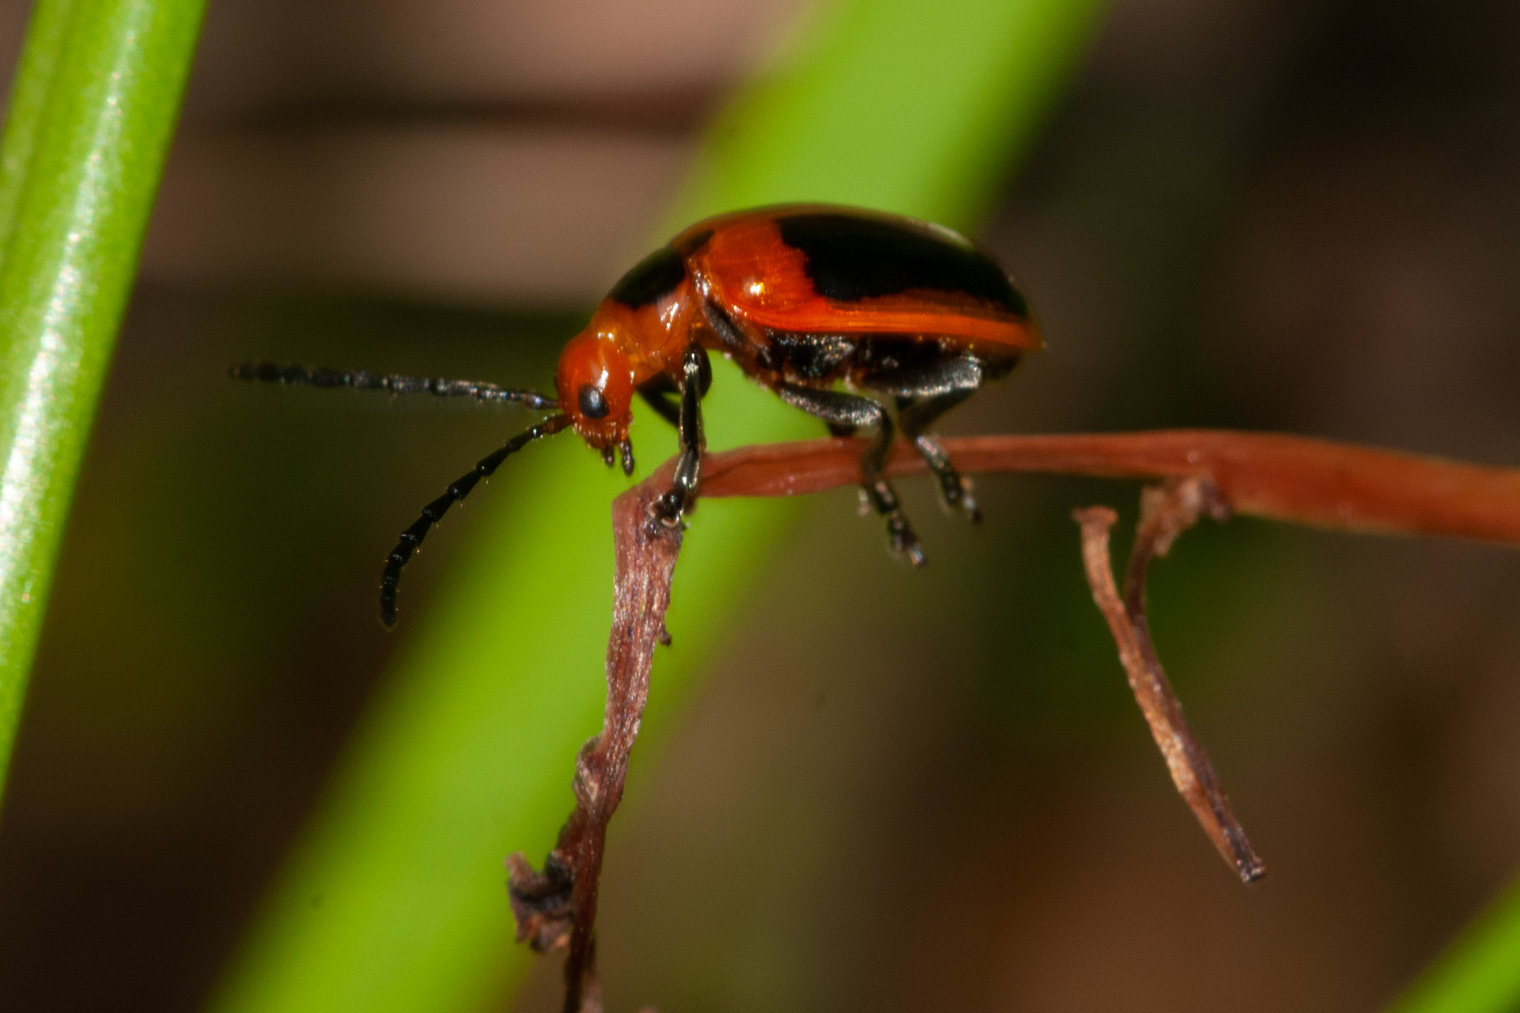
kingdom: Animalia
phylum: Arthropoda
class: Insecta
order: Coleoptera
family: Chrysomelidae
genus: Oides
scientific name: Oides
